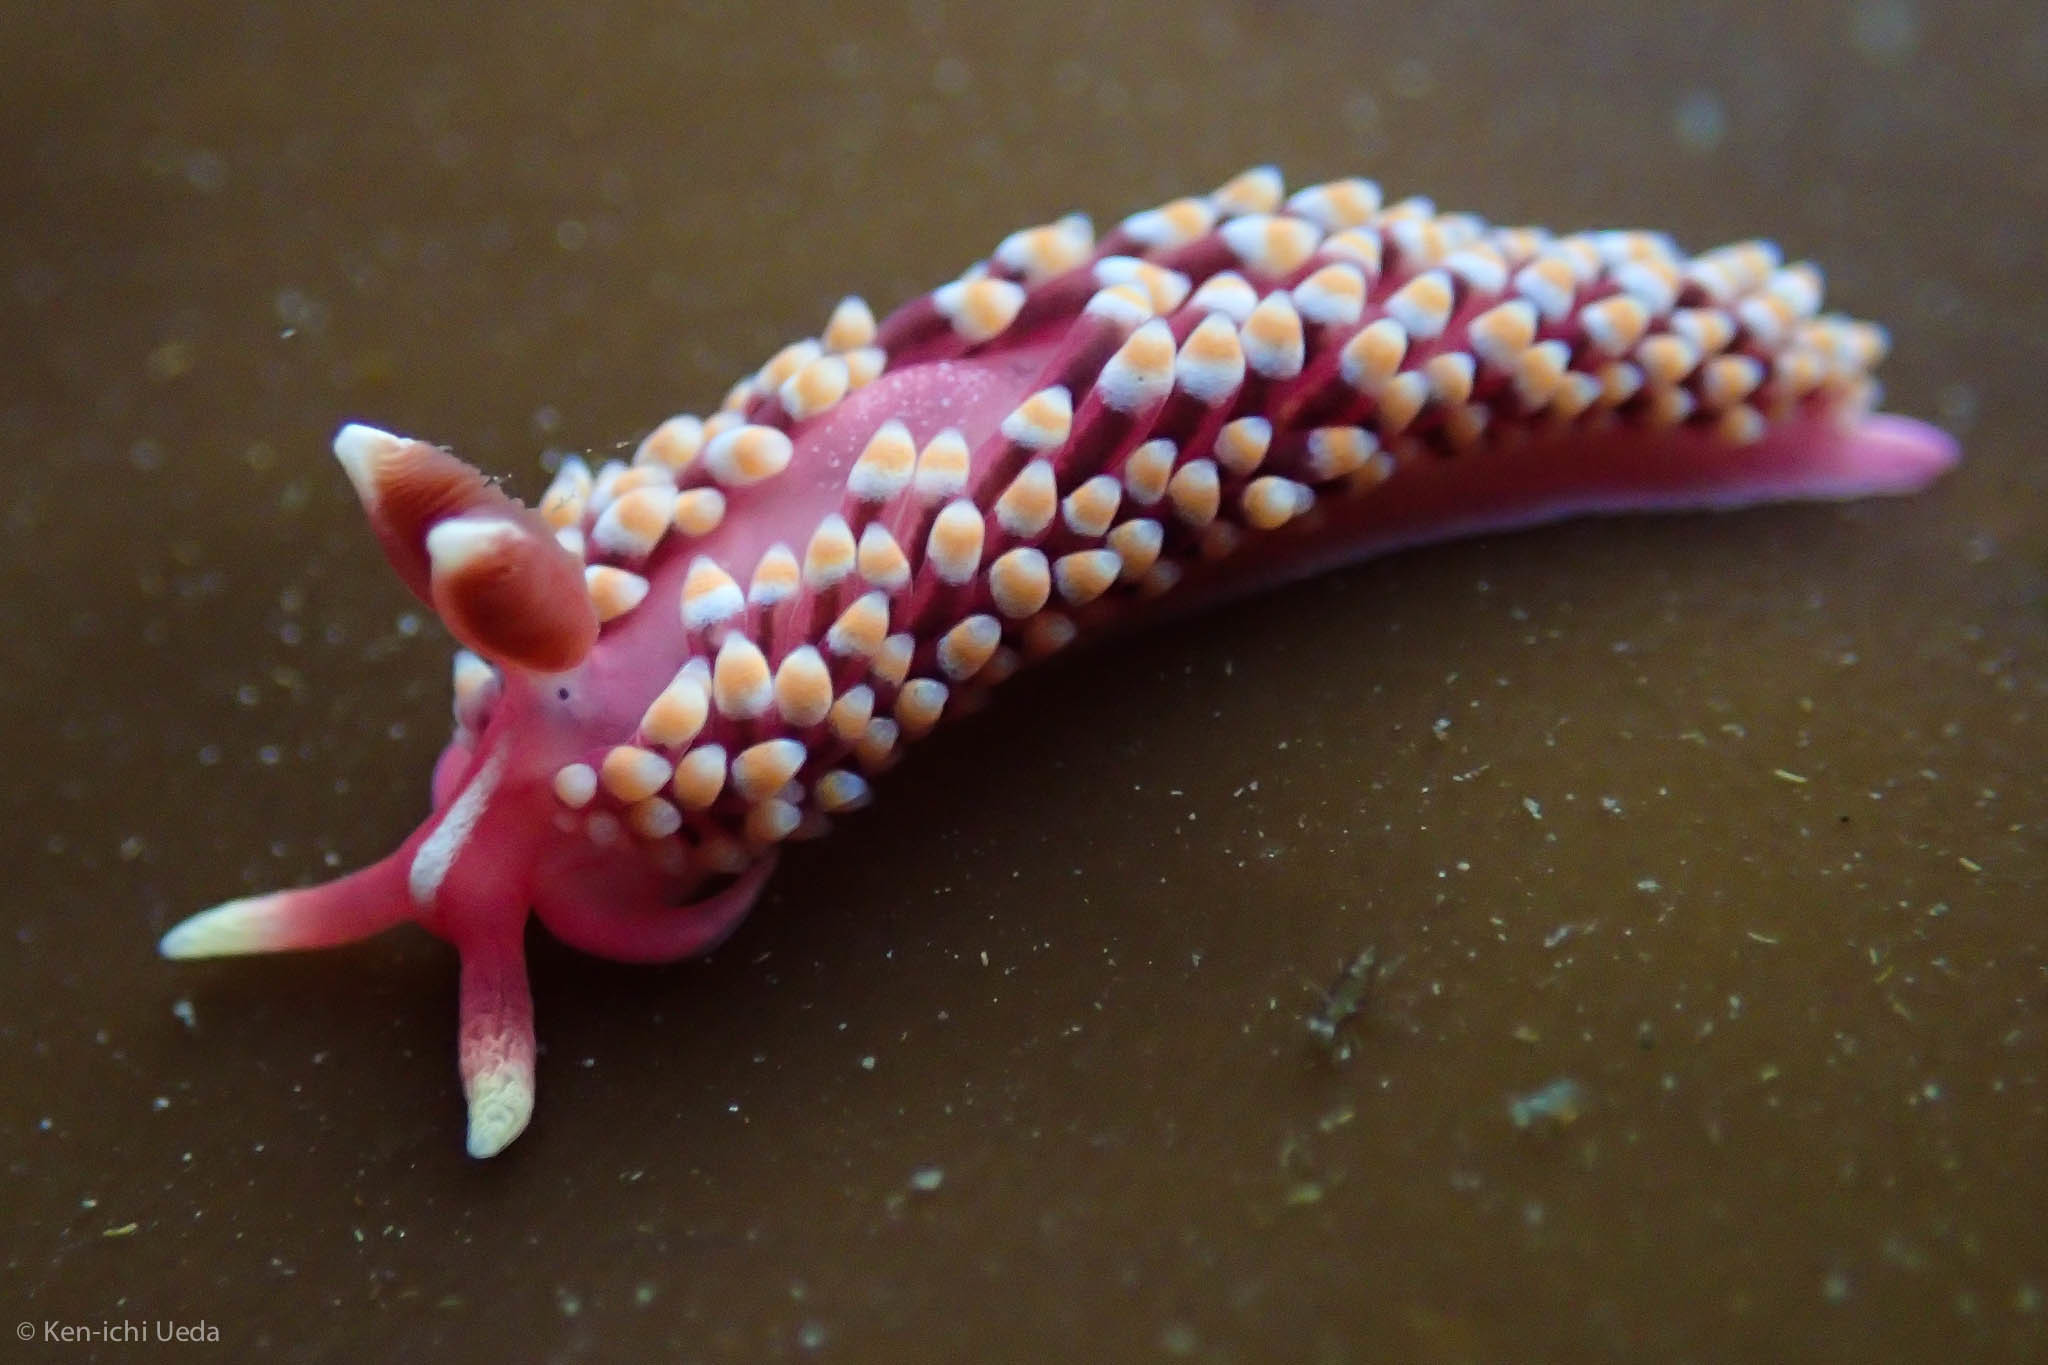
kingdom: Animalia
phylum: Mollusca
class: Gastropoda
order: Nudibranchia
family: Babakinidae
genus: Babakina
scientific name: Babakina festiva
